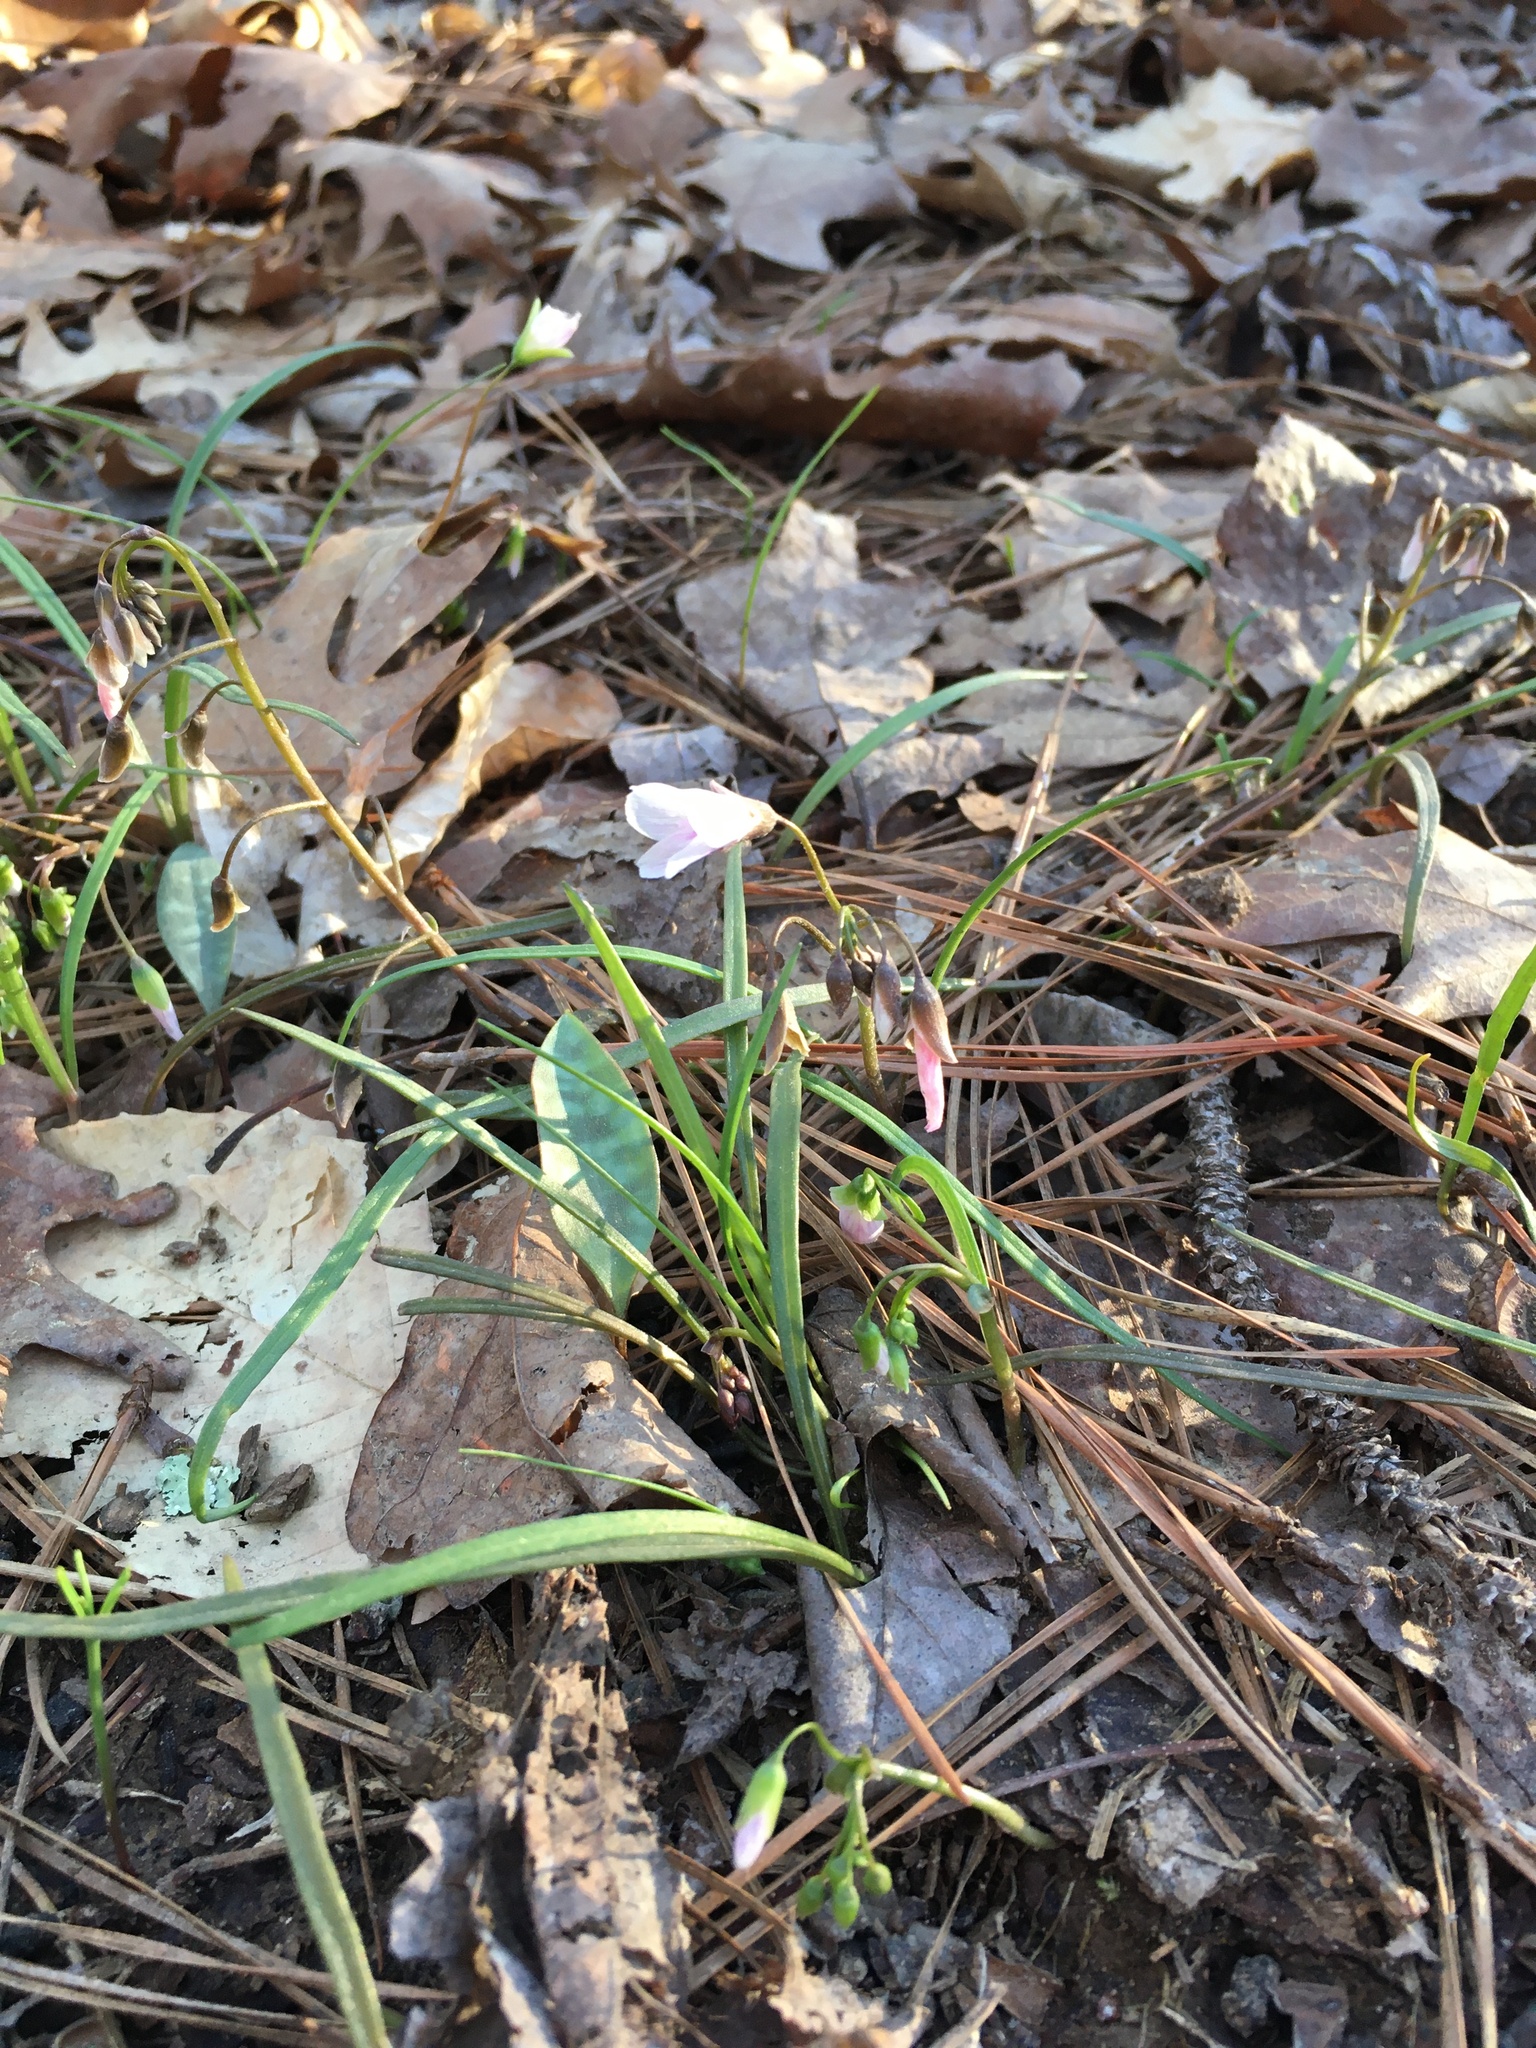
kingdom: Plantae
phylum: Tracheophyta
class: Magnoliopsida
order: Caryophyllales
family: Montiaceae
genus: Claytonia
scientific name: Claytonia virginica
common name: Virginia springbeauty
